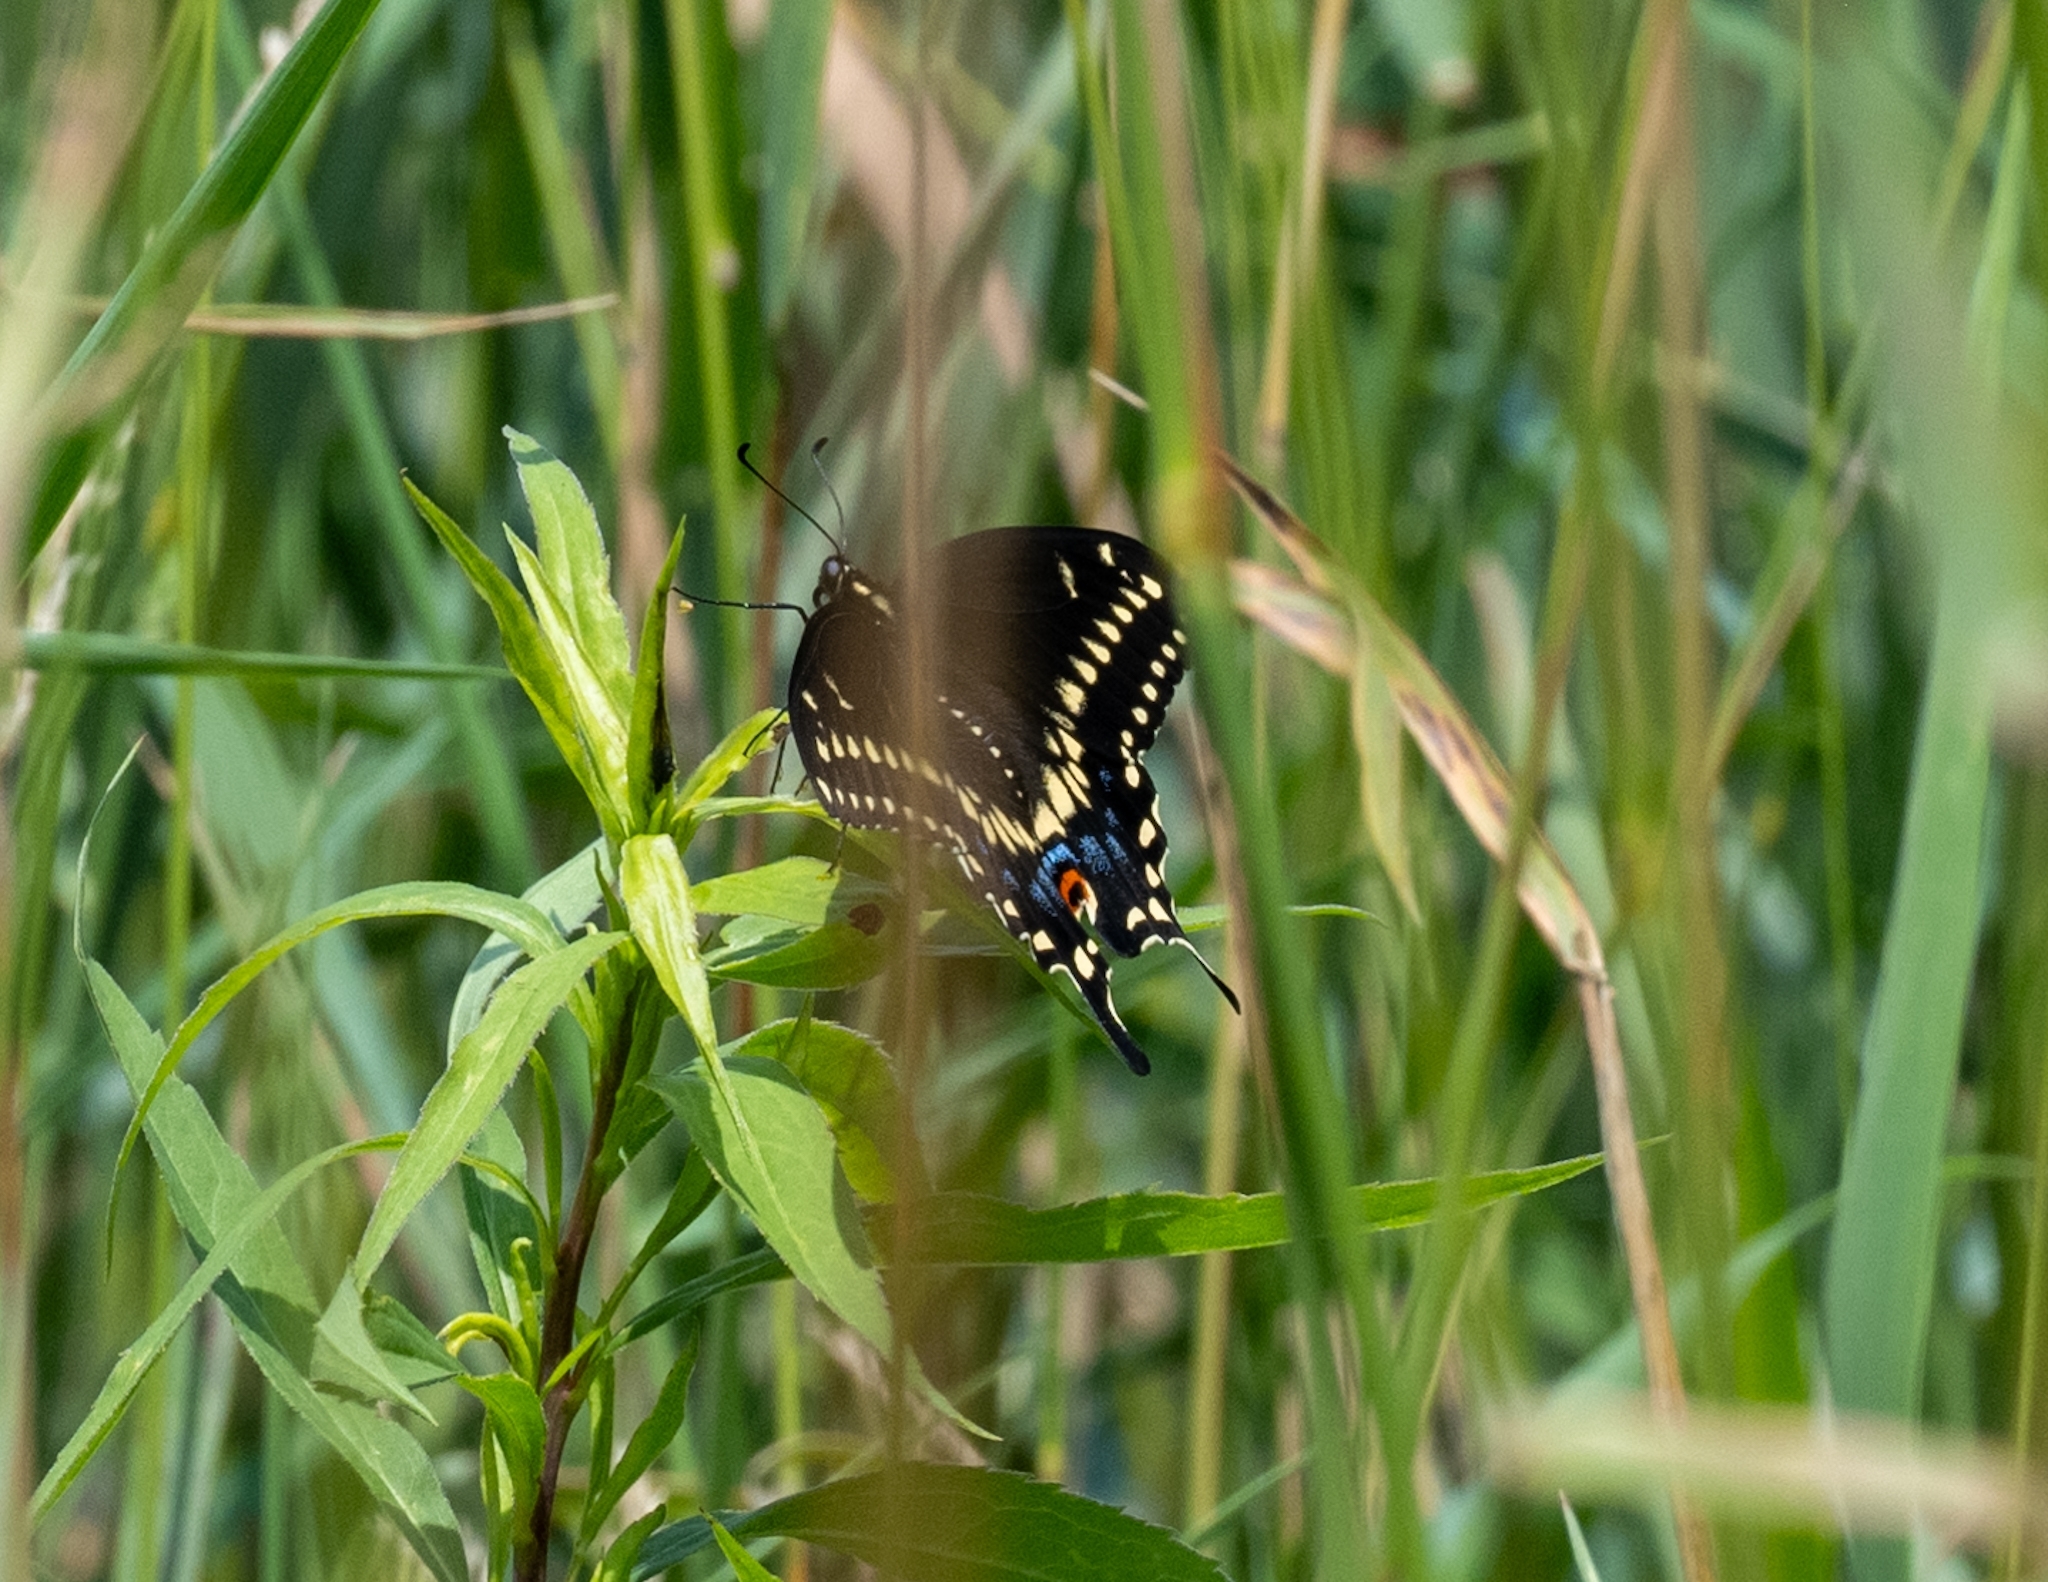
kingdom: Animalia
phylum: Arthropoda
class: Insecta
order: Lepidoptera
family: Papilionidae
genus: Papilio
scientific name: Papilio polyxenes
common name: Black swallowtail
